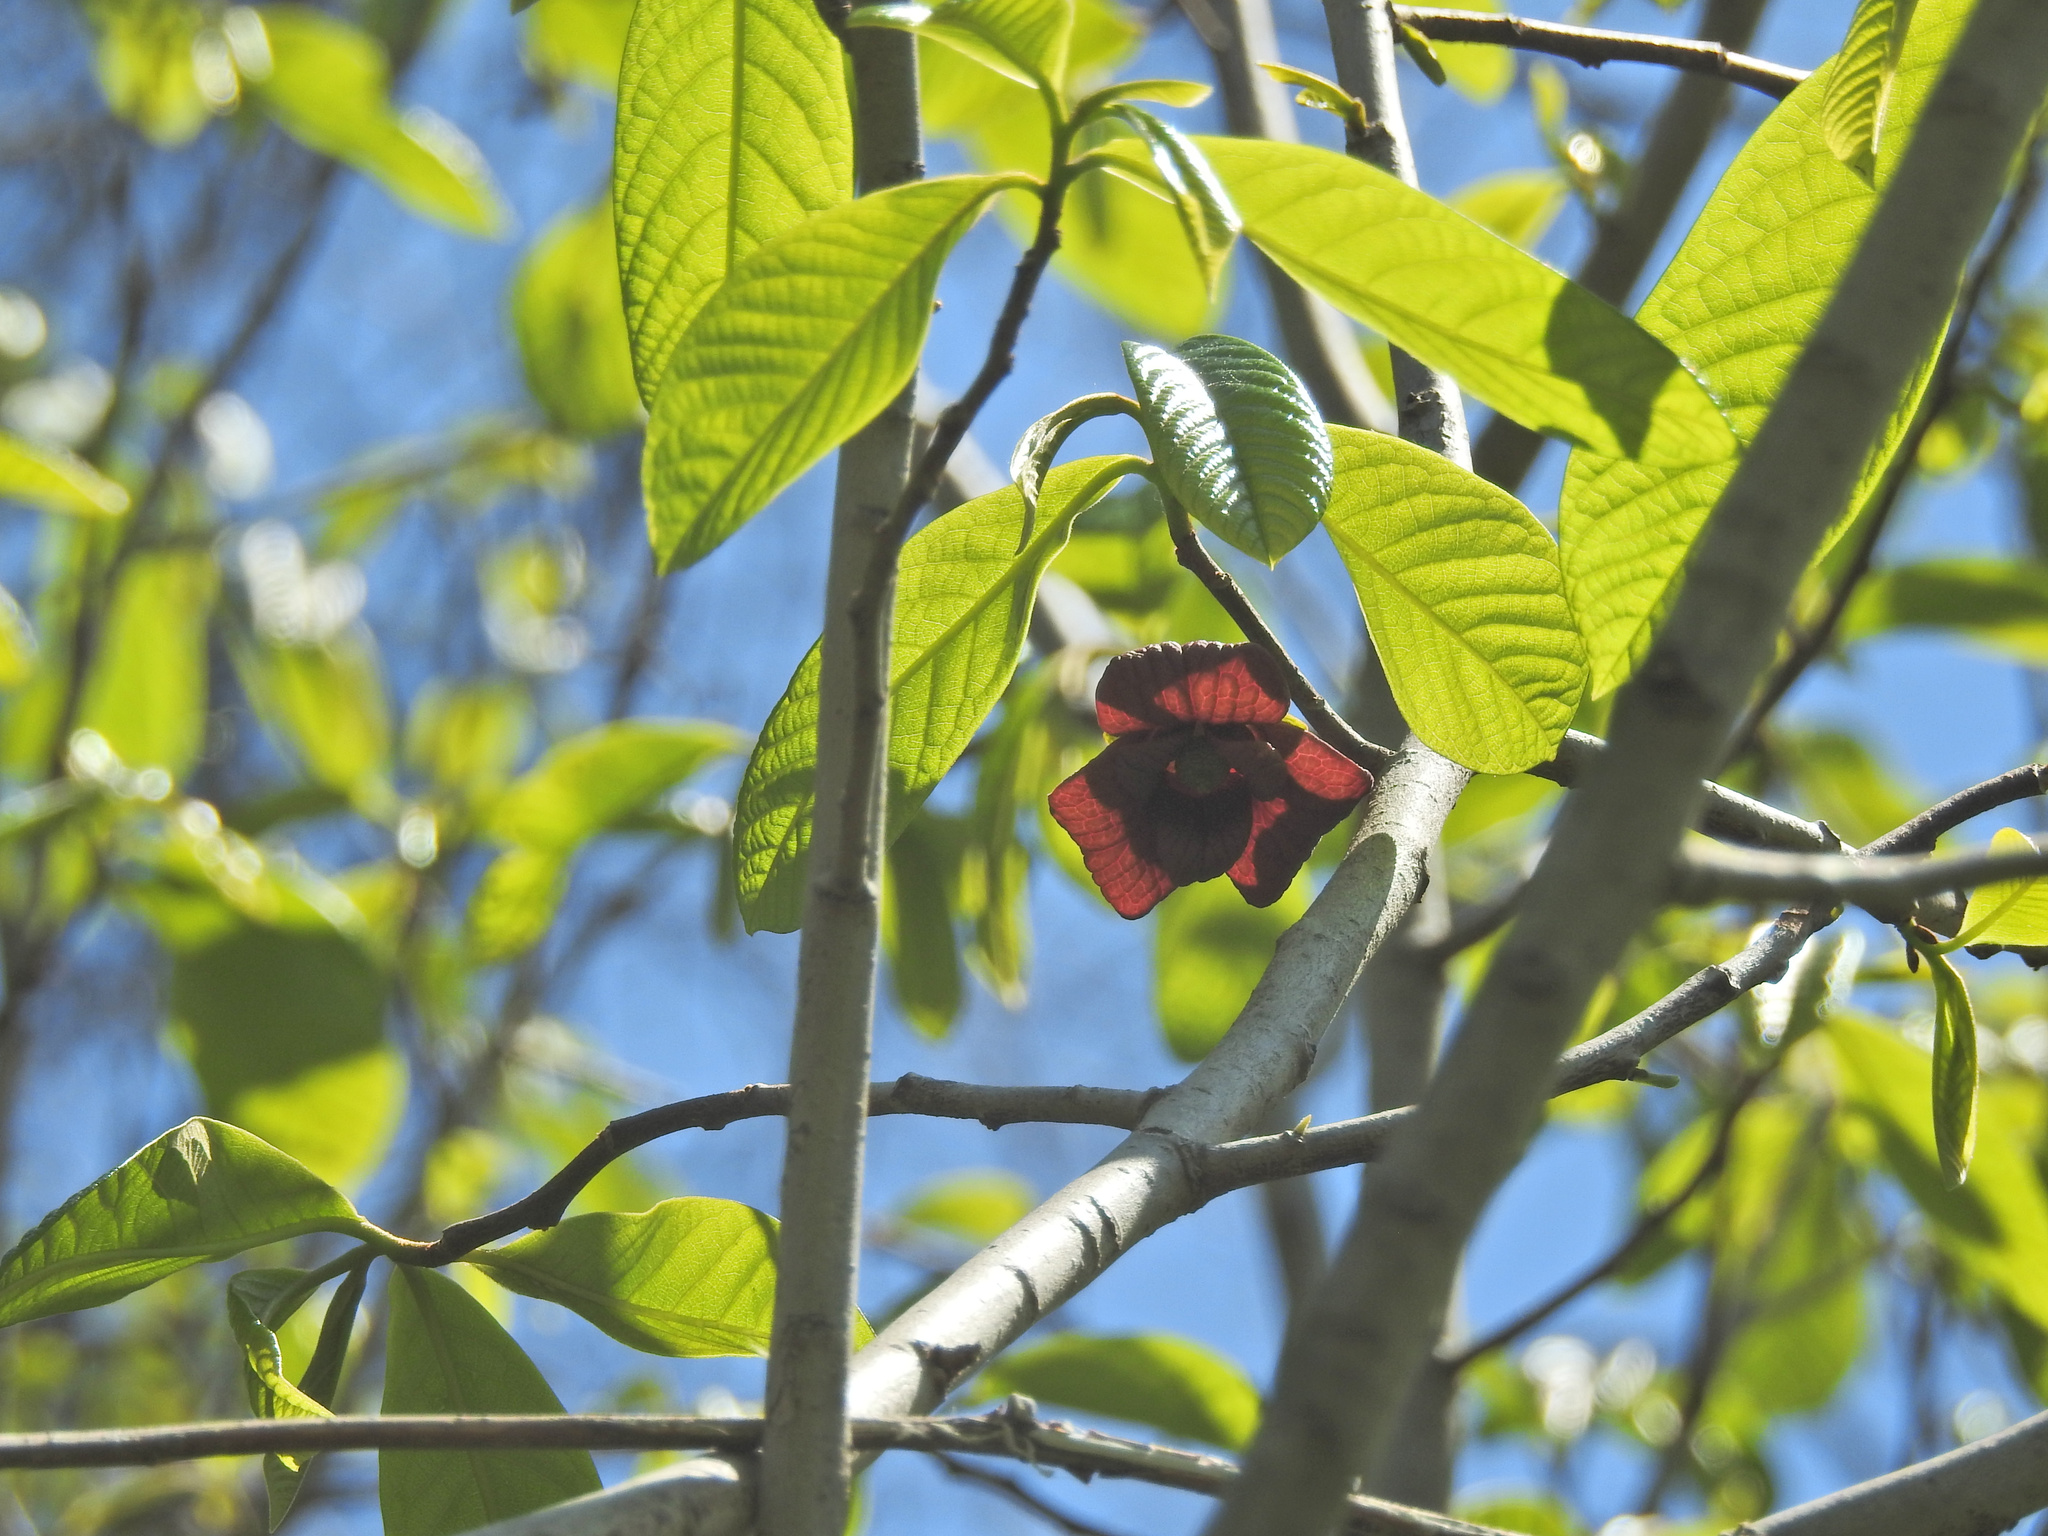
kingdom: Plantae
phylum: Tracheophyta
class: Magnoliopsida
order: Magnoliales
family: Annonaceae
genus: Asimina
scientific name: Asimina triloba
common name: Dog-banana
